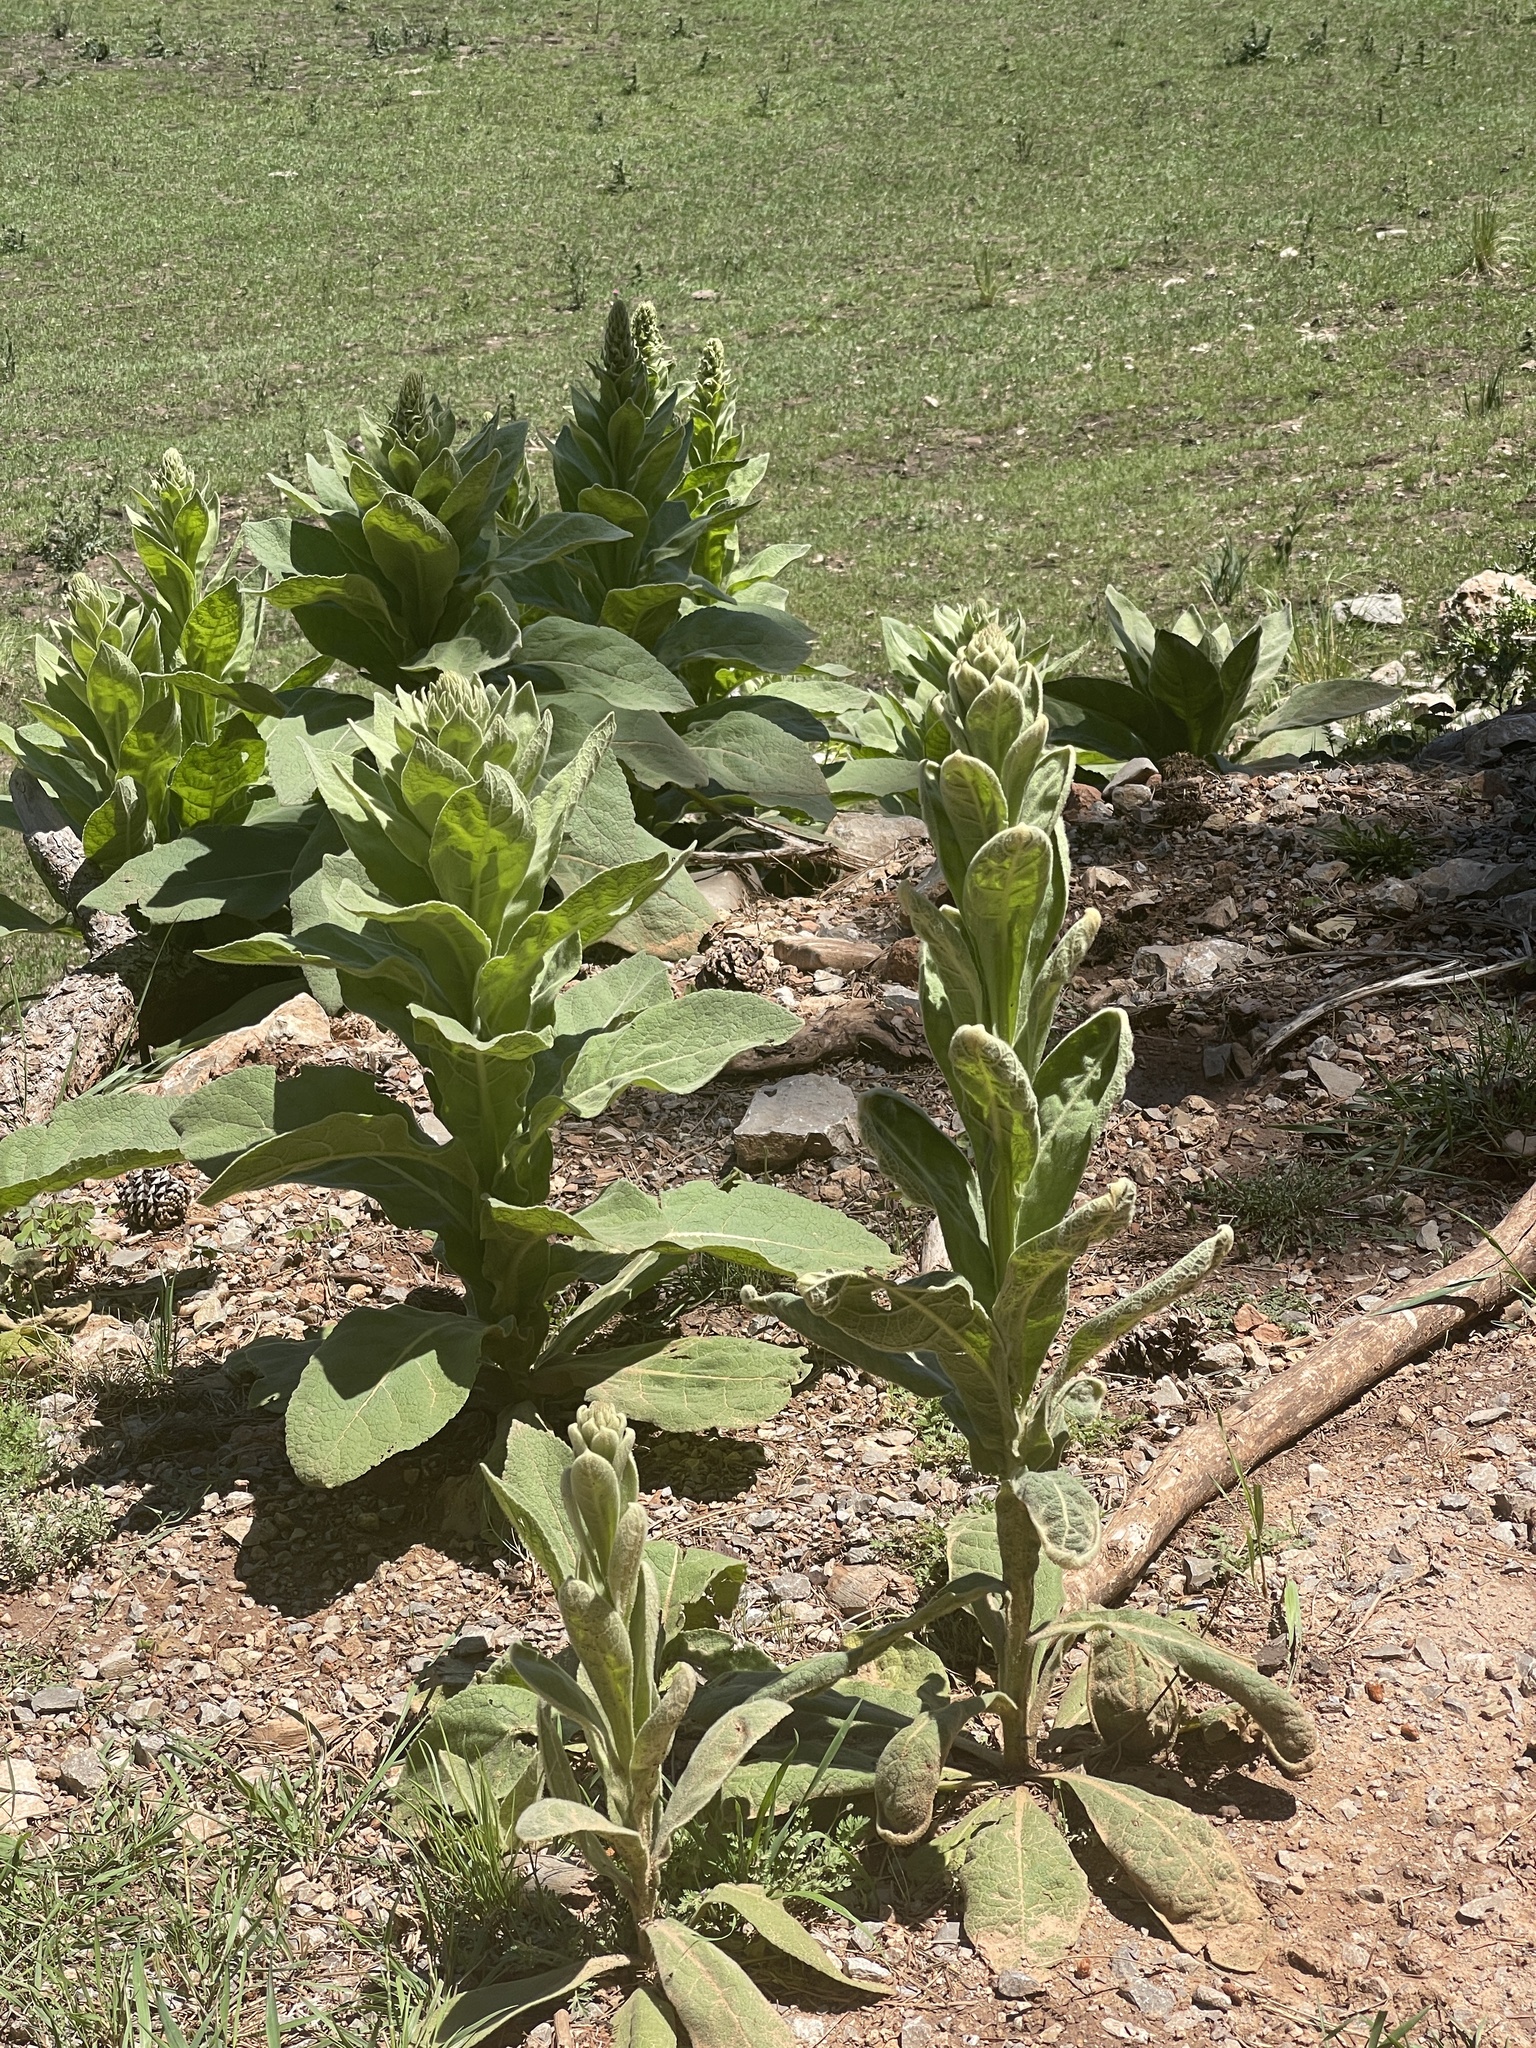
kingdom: Plantae
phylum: Tracheophyta
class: Magnoliopsida
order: Lamiales
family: Scrophulariaceae
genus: Verbascum
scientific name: Verbascum thapsus
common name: Common mullein
